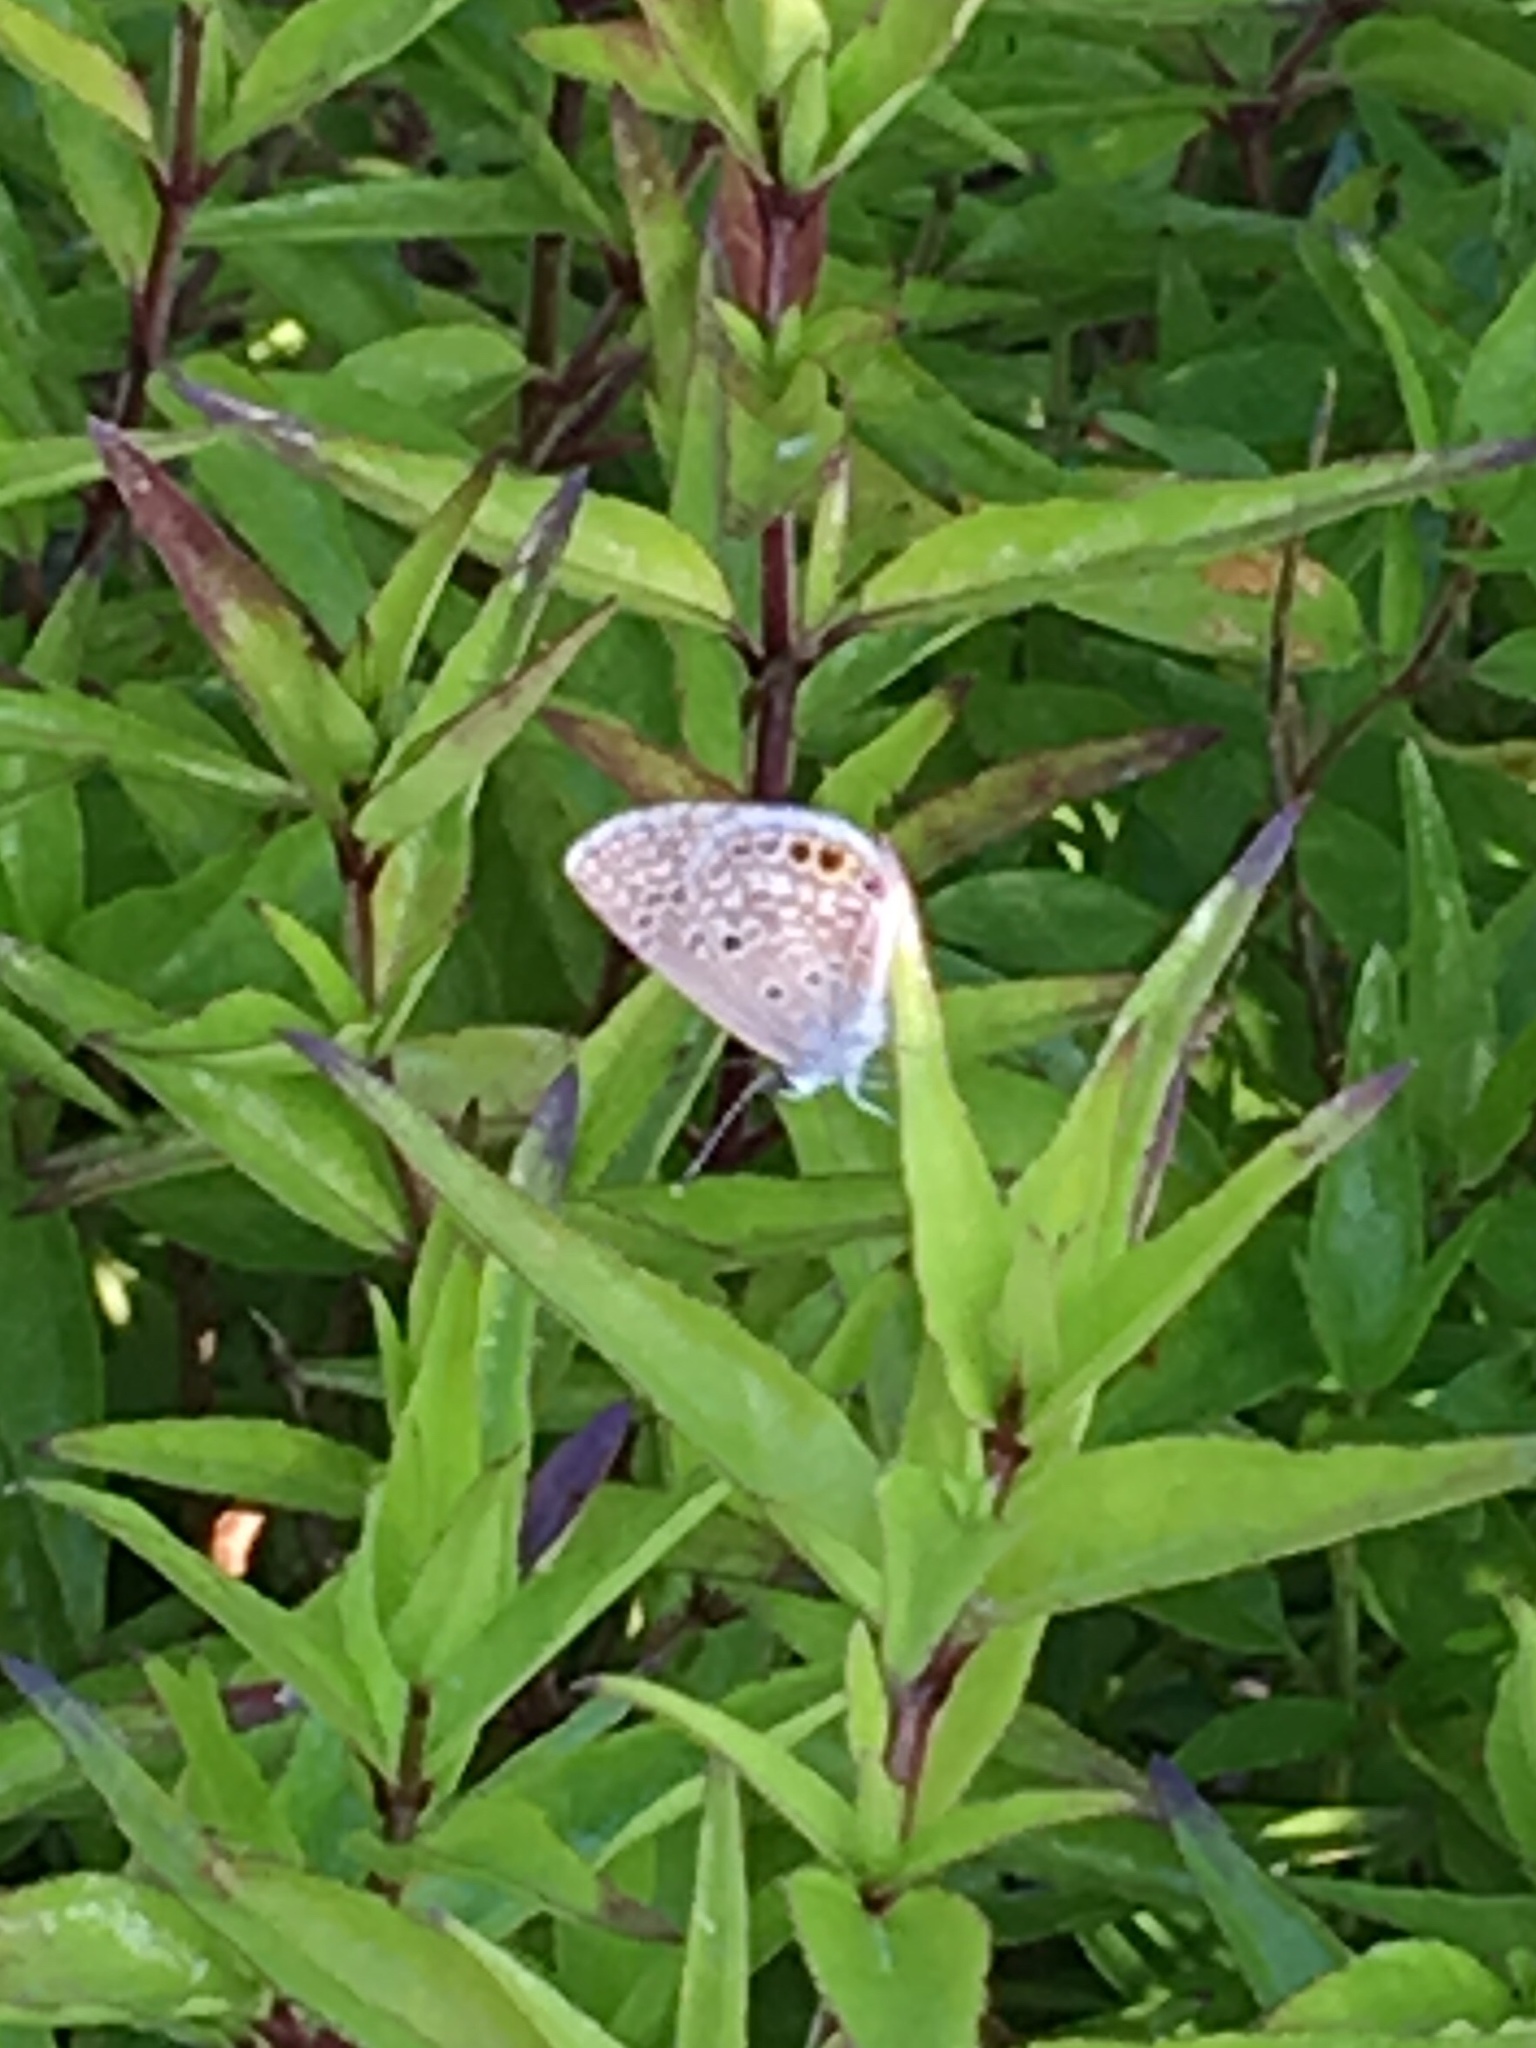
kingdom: Animalia
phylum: Arthropoda
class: Insecta
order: Lepidoptera
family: Lycaenidae
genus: Hemiargus
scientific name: Hemiargus ceraunus
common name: Ceraunus blue
